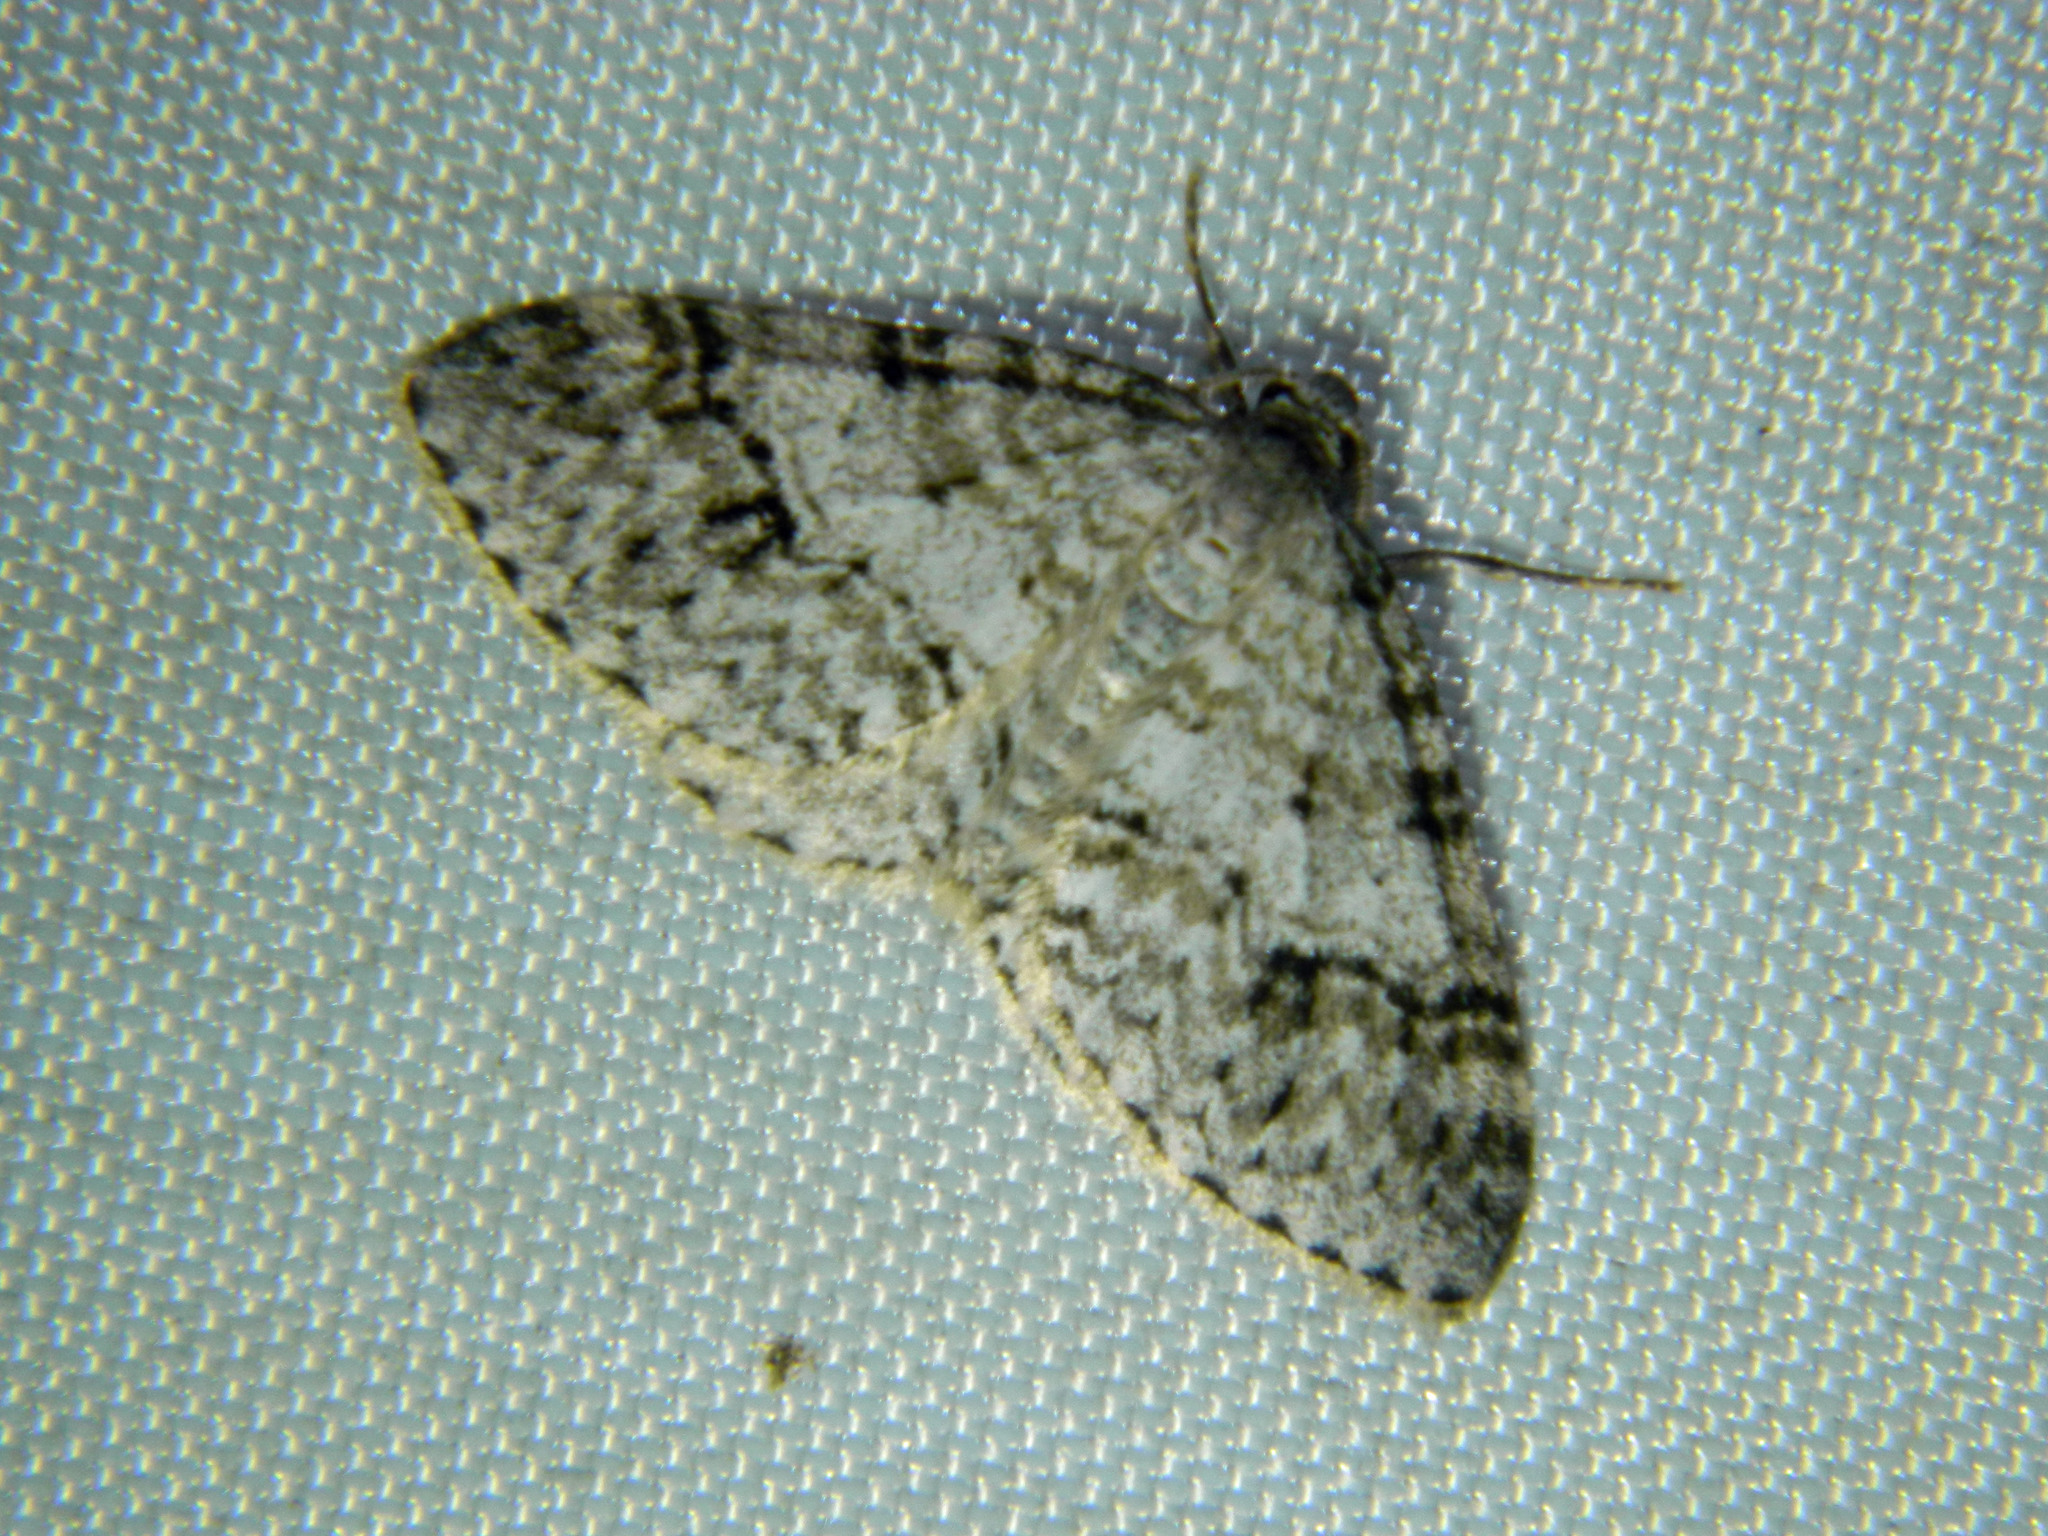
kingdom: Animalia
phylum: Arthropoda
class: Insecta
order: Lepidoptera
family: Geometridae
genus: Venusia
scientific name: Venusia cambrica
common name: Welsh wave
